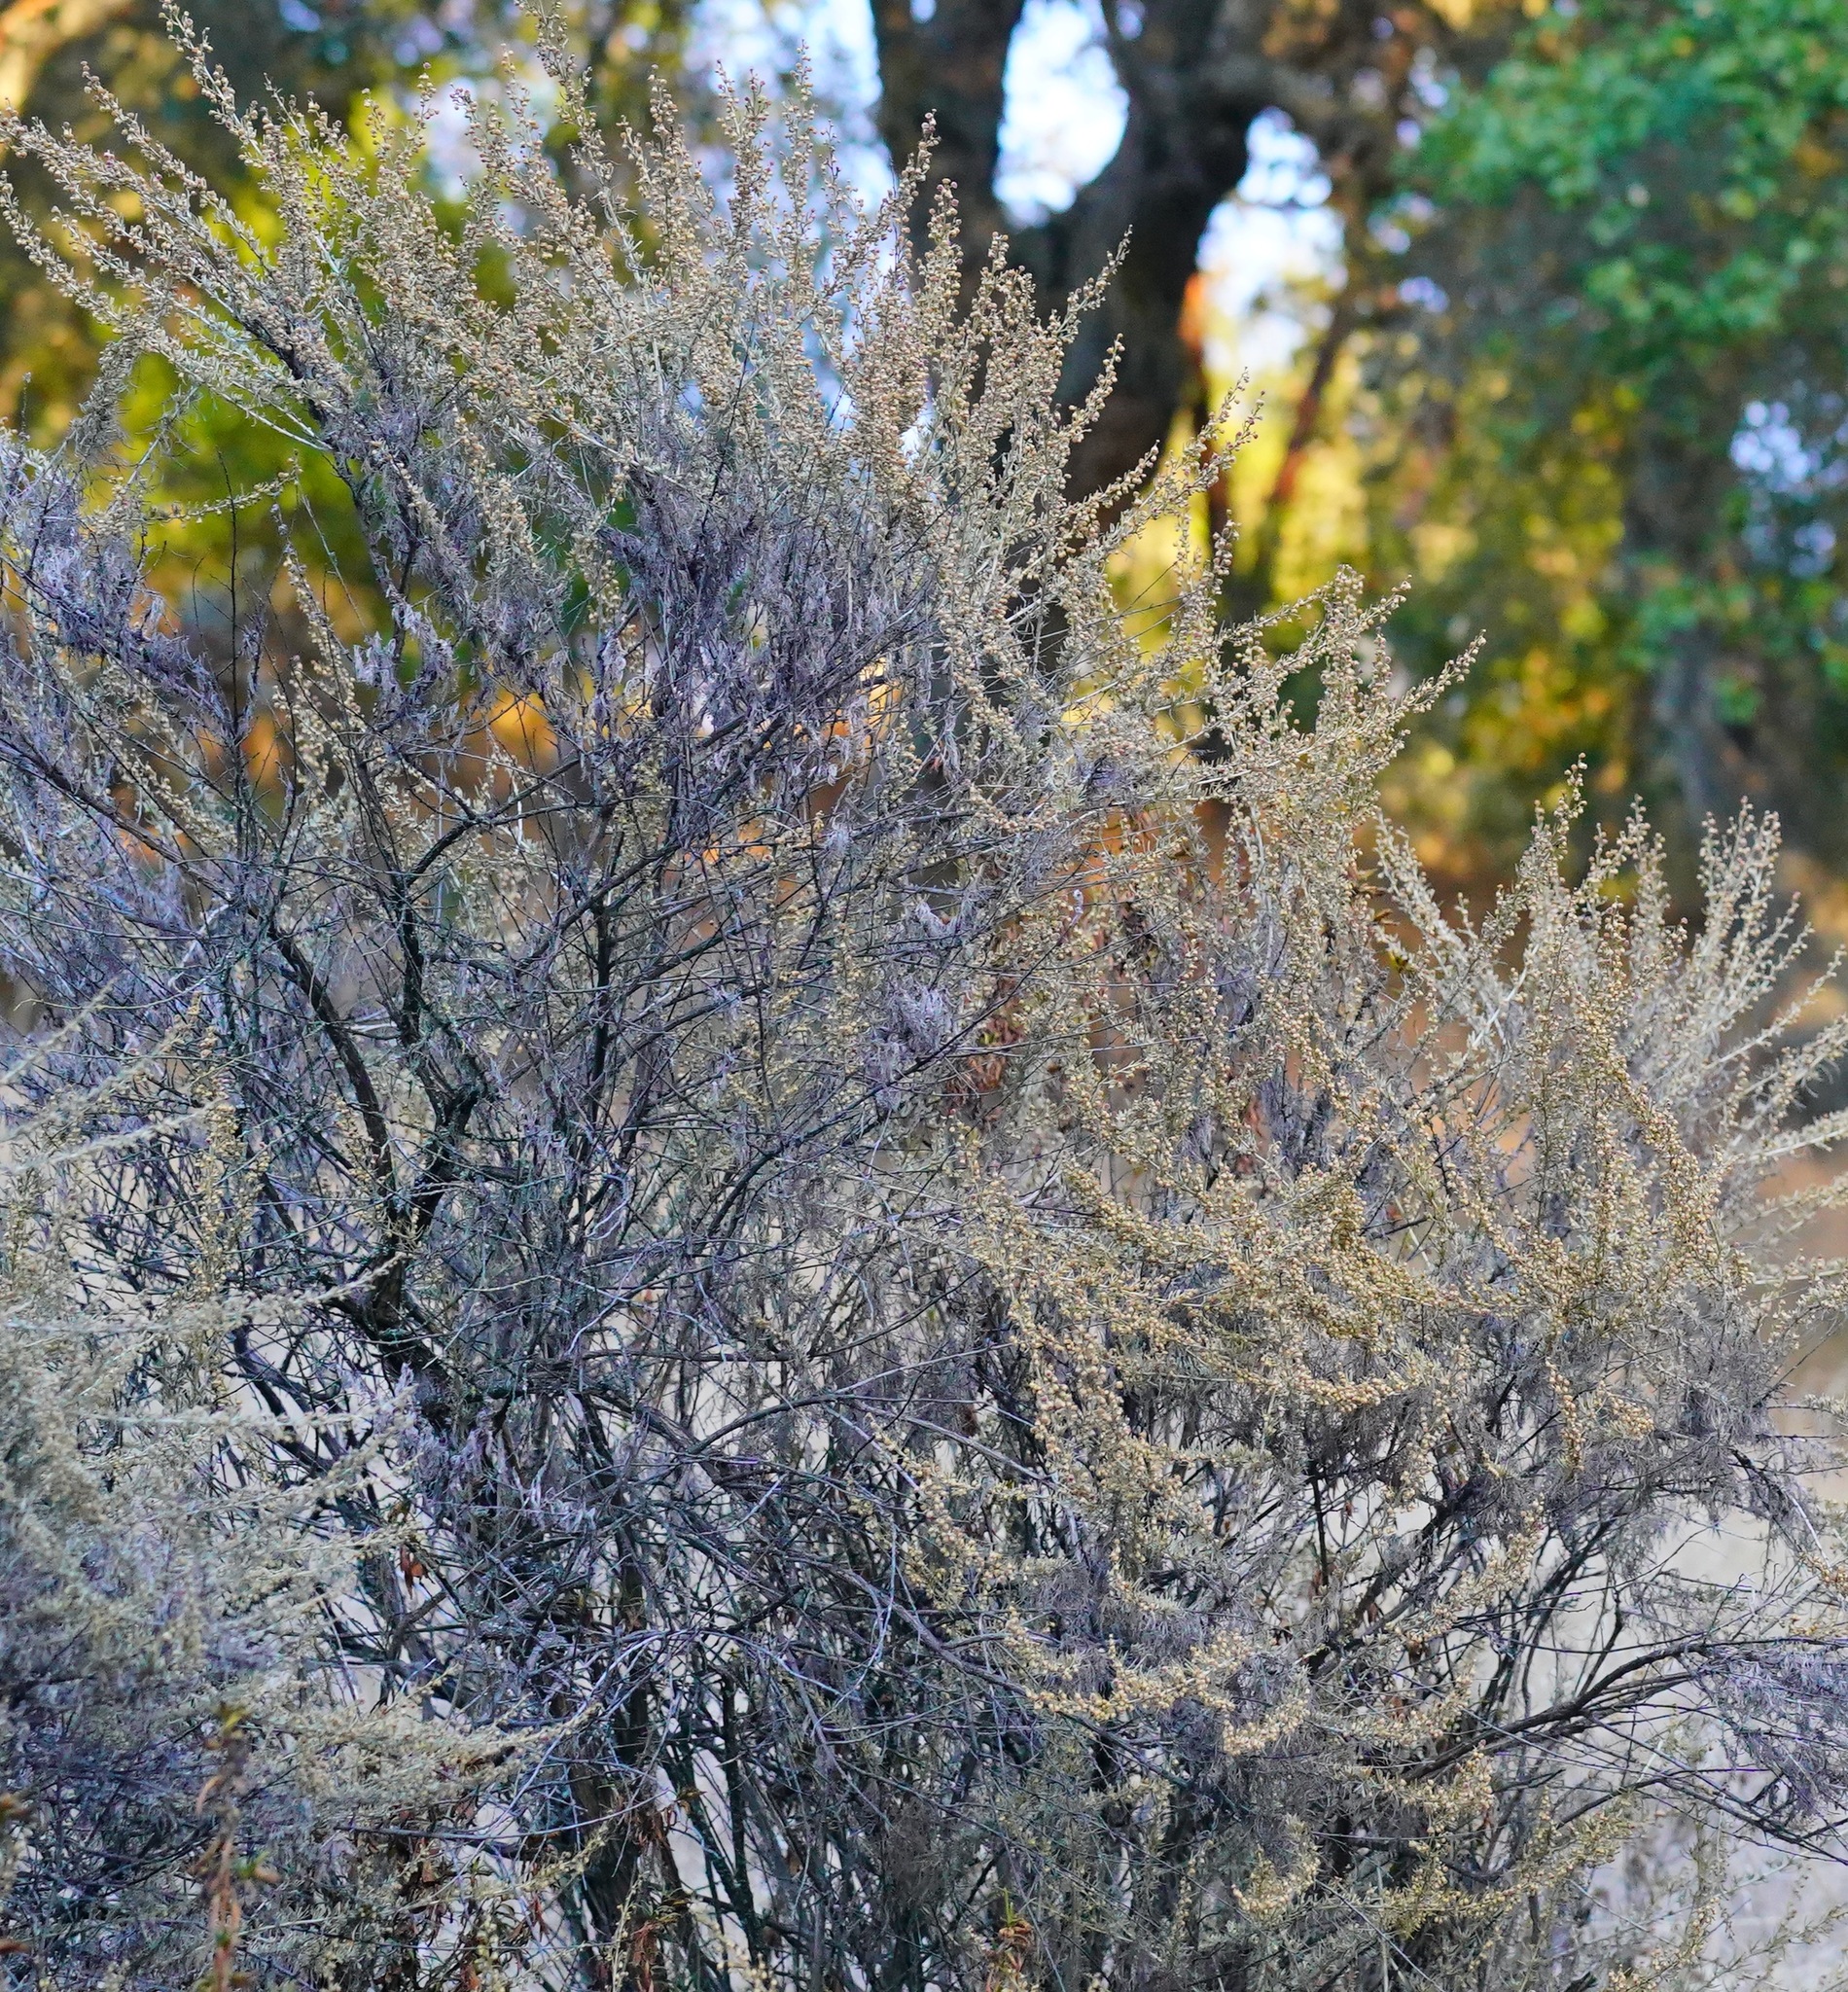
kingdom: Plantae
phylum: Tracheophyta
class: Magnoliopsida
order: Asterales
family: Asteraceae
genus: Artemisia
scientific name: Artemisia californica
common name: California sagebrush
